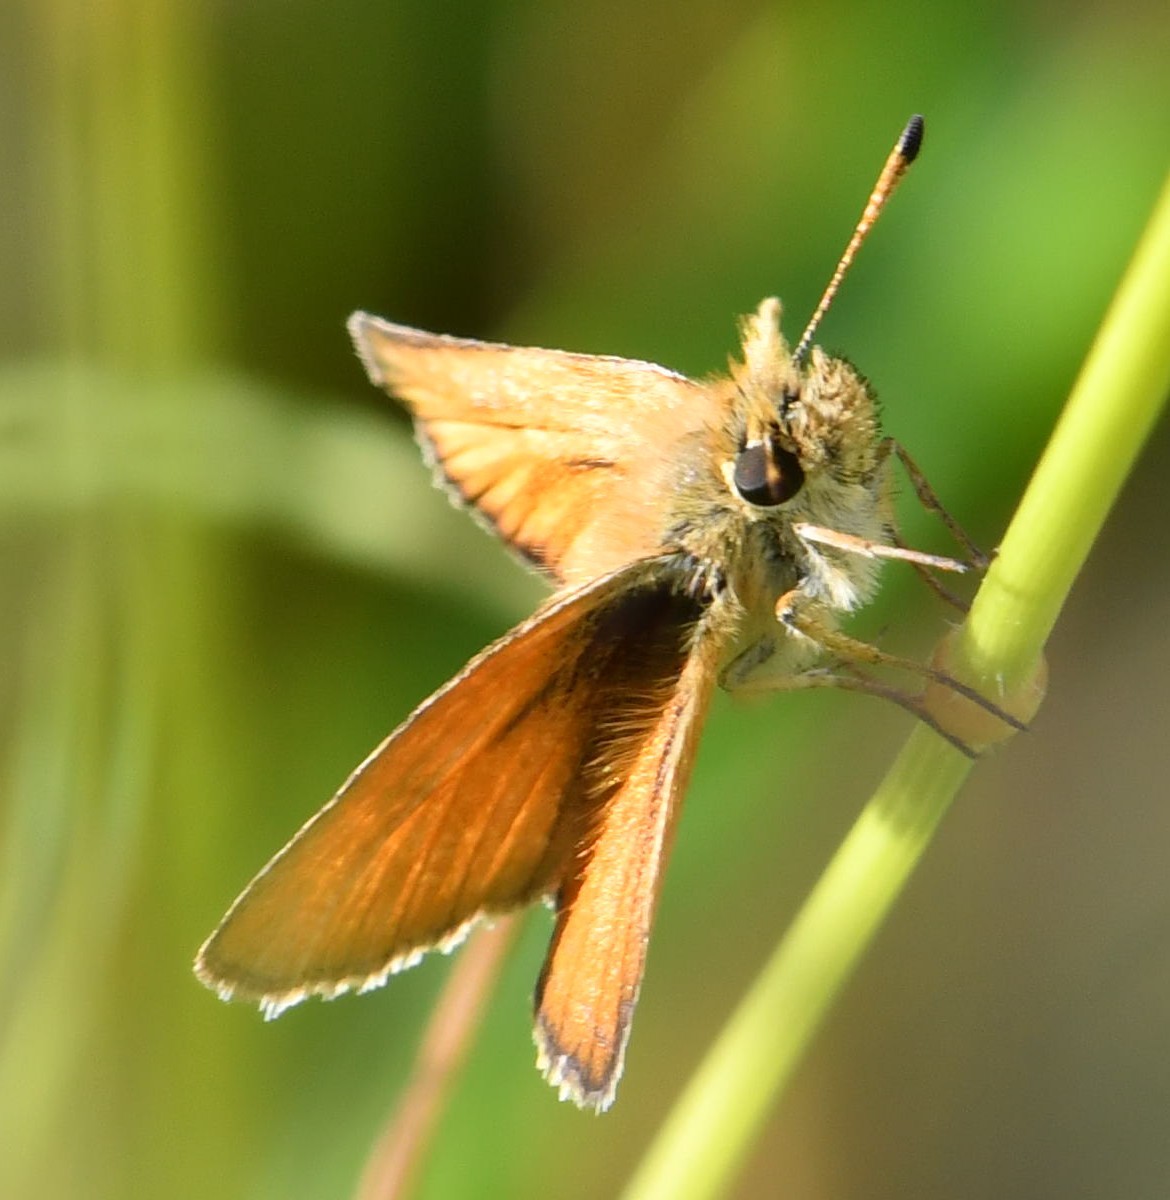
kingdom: Animalia
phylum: Arthropoda
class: Insecta
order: Lepidoptera
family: Hesperiidae
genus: Thymelicus
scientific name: Thymelicus lineola
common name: Essex skipper
